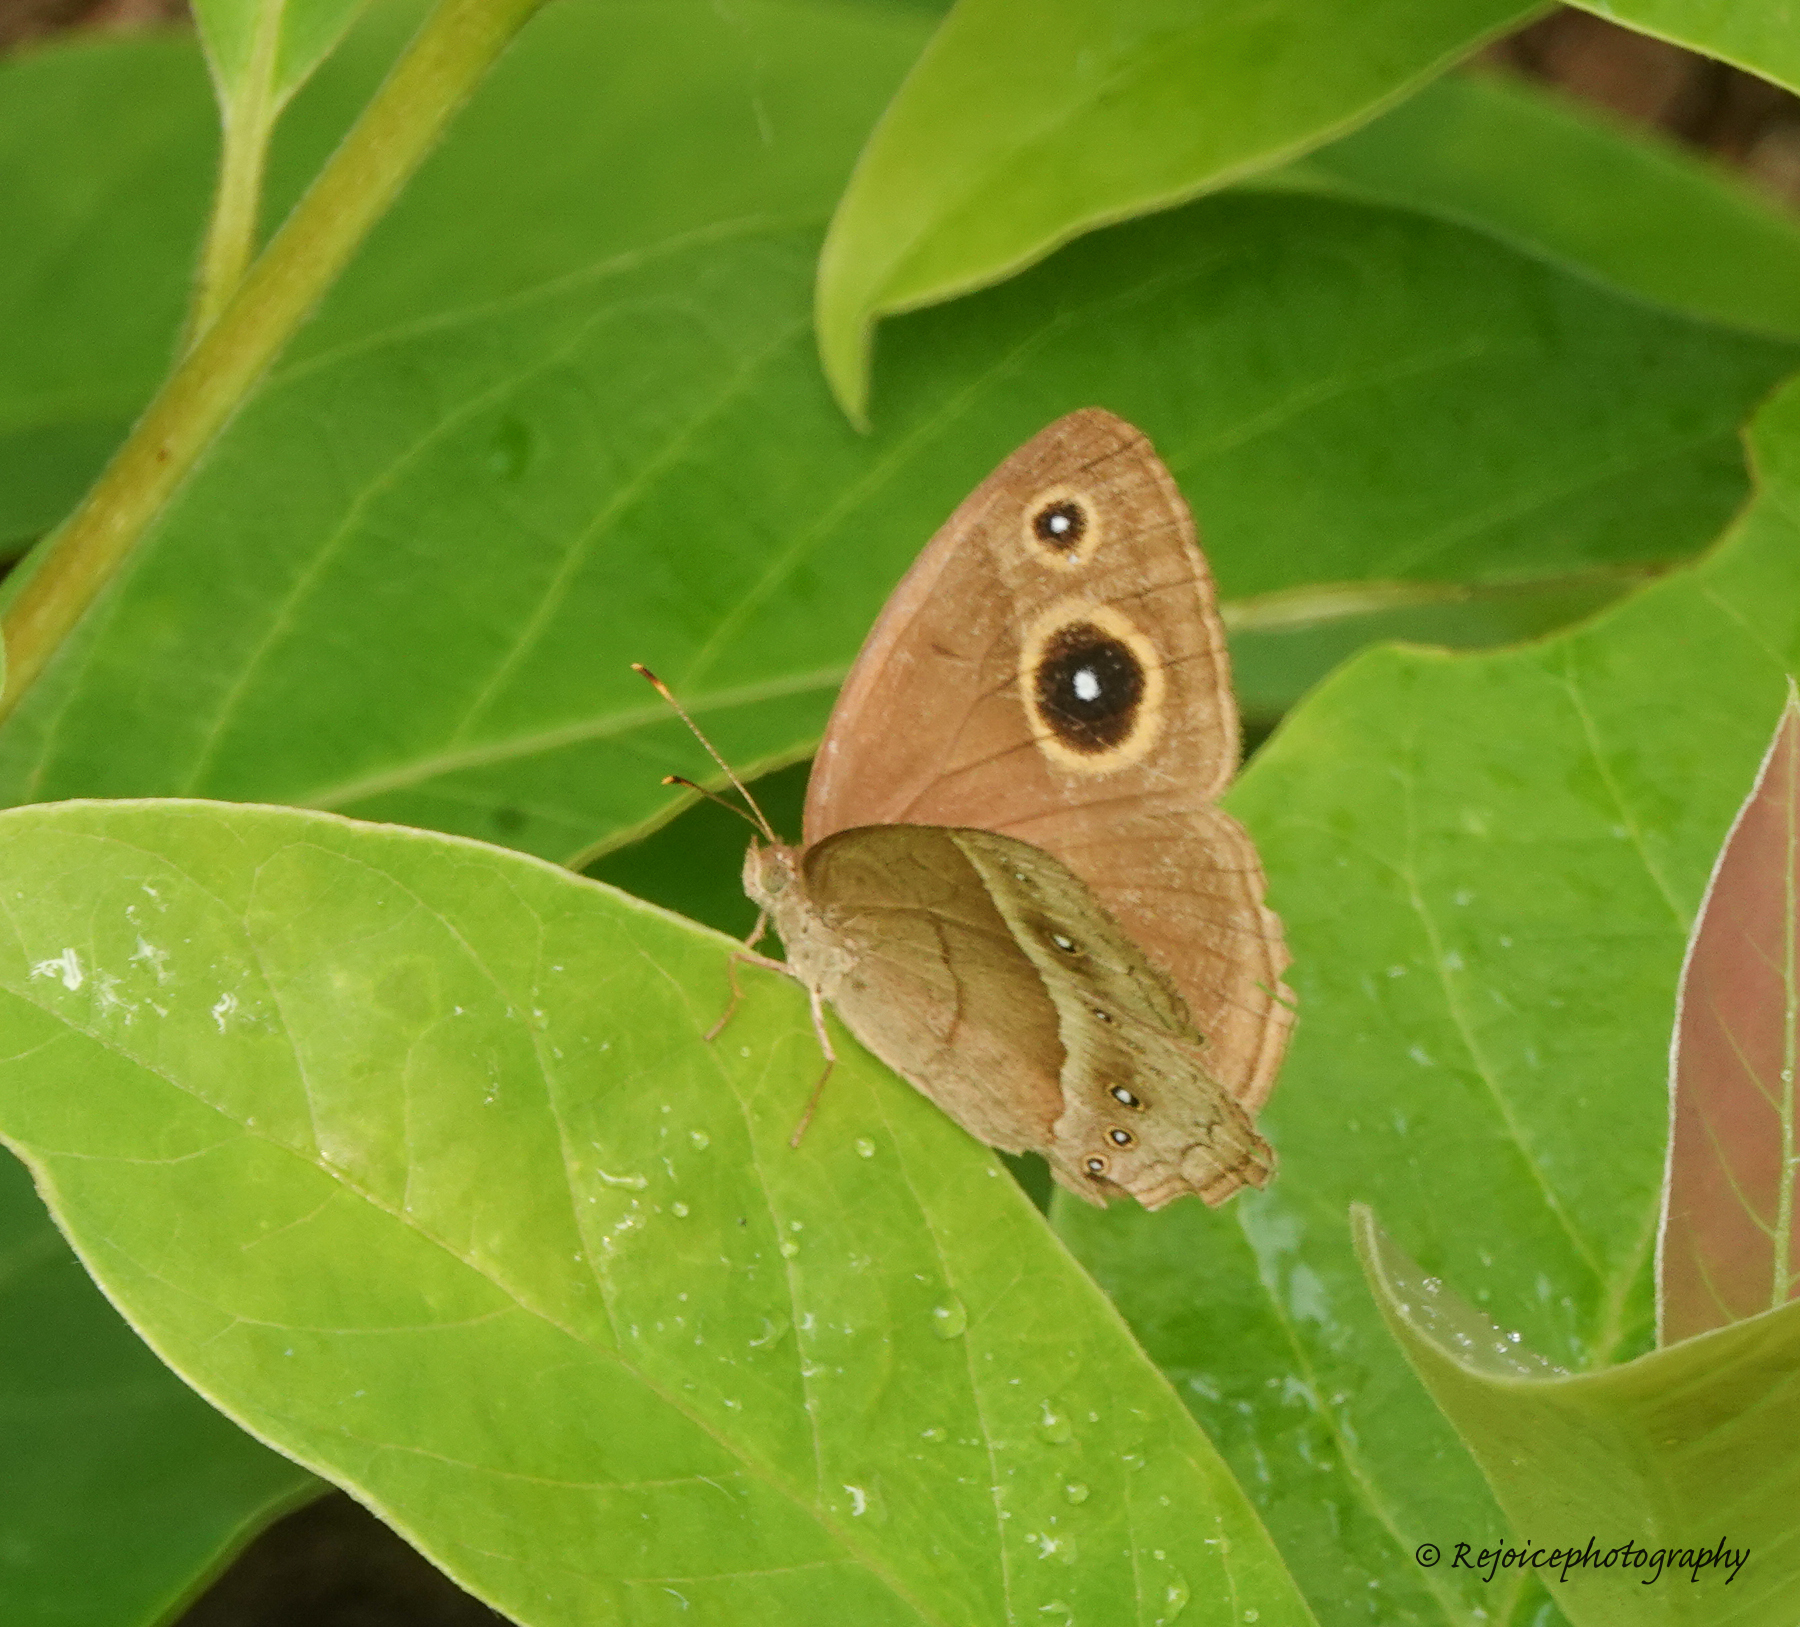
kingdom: Animalia
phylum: Arthropoda
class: Insecta
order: Lepidoptera
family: Nymphalidae
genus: Mycalesis
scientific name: Mycalesis gotama
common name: Chinese bushbrown
